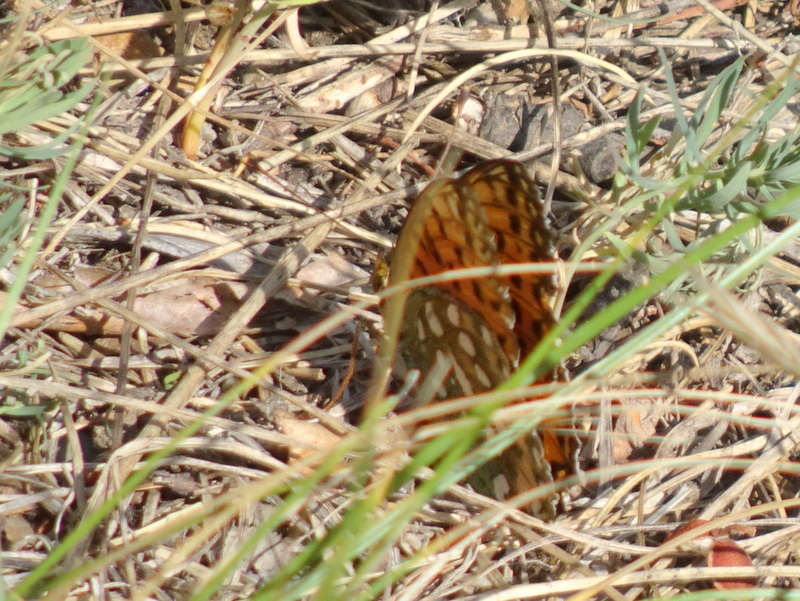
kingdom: Animalia
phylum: Arthropoda
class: Insecta
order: Lepidoptera
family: Nymphalidae
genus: Speyeria
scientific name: Speyeria aglaja
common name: Dark green fritillary
